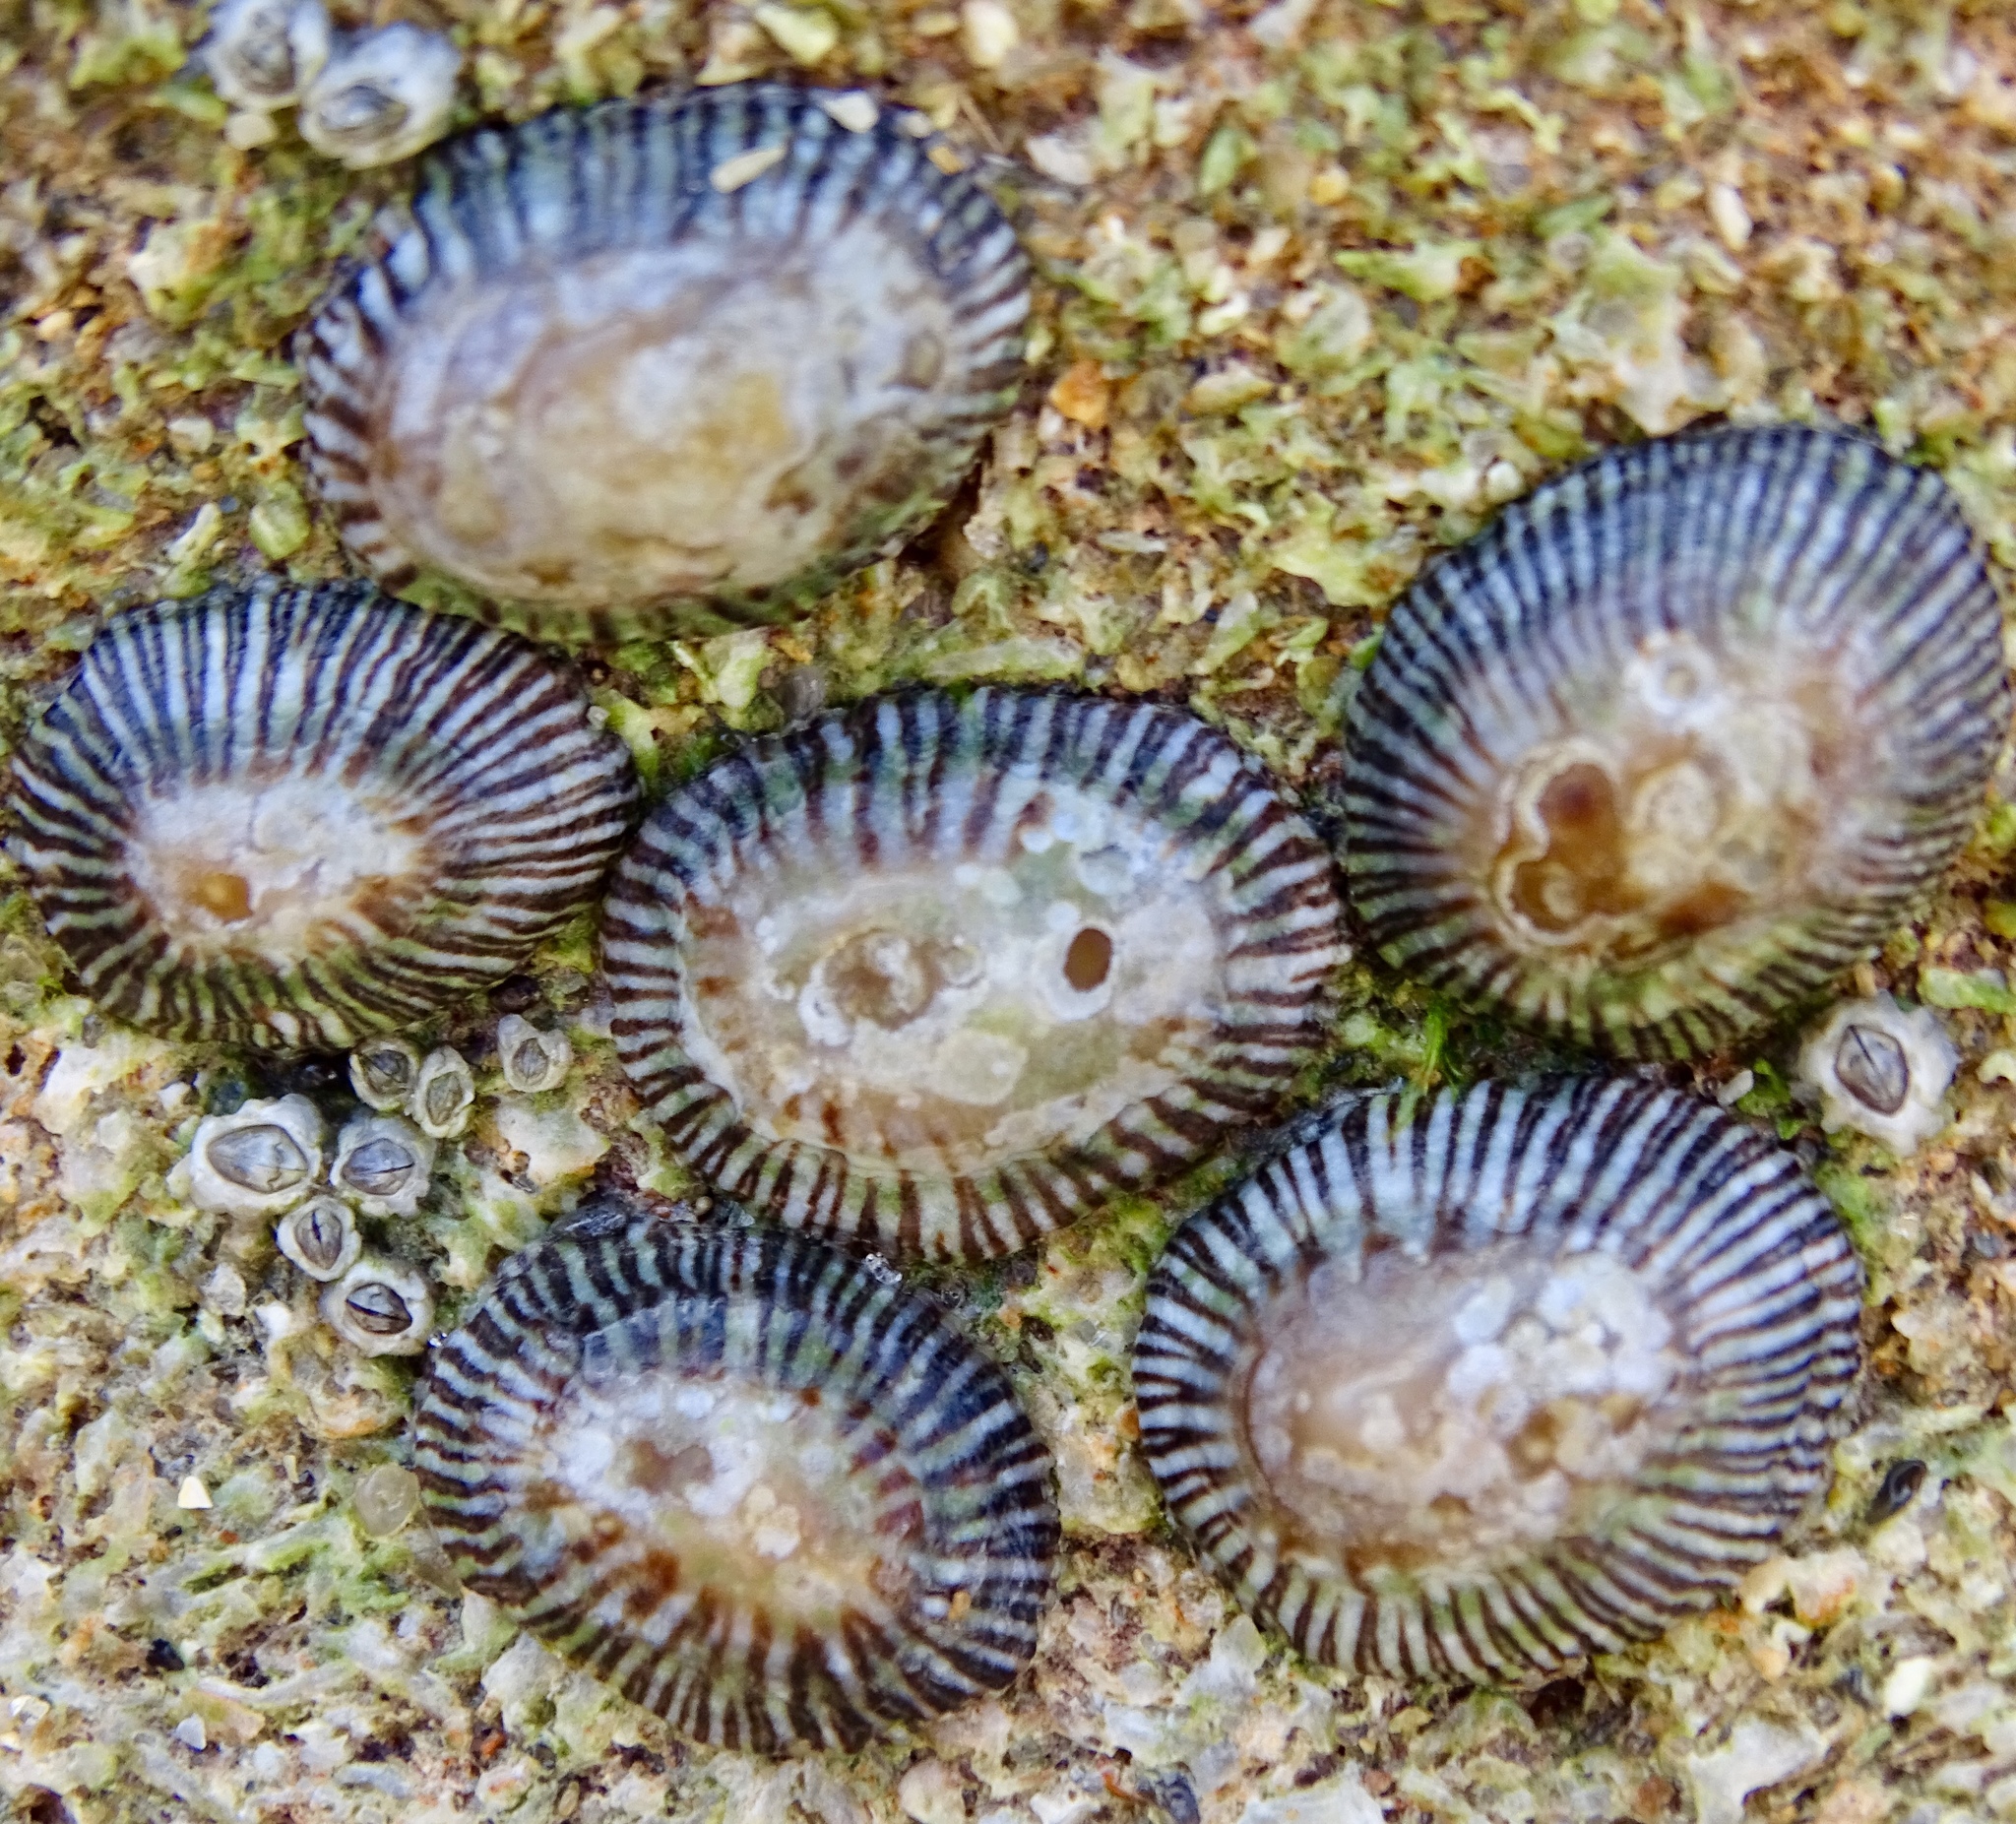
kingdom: Animalia
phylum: Mollusca
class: Gastropoda
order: Siphonariida
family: Siphonariidae
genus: Siphonaria
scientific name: Siphonaria naufragum
